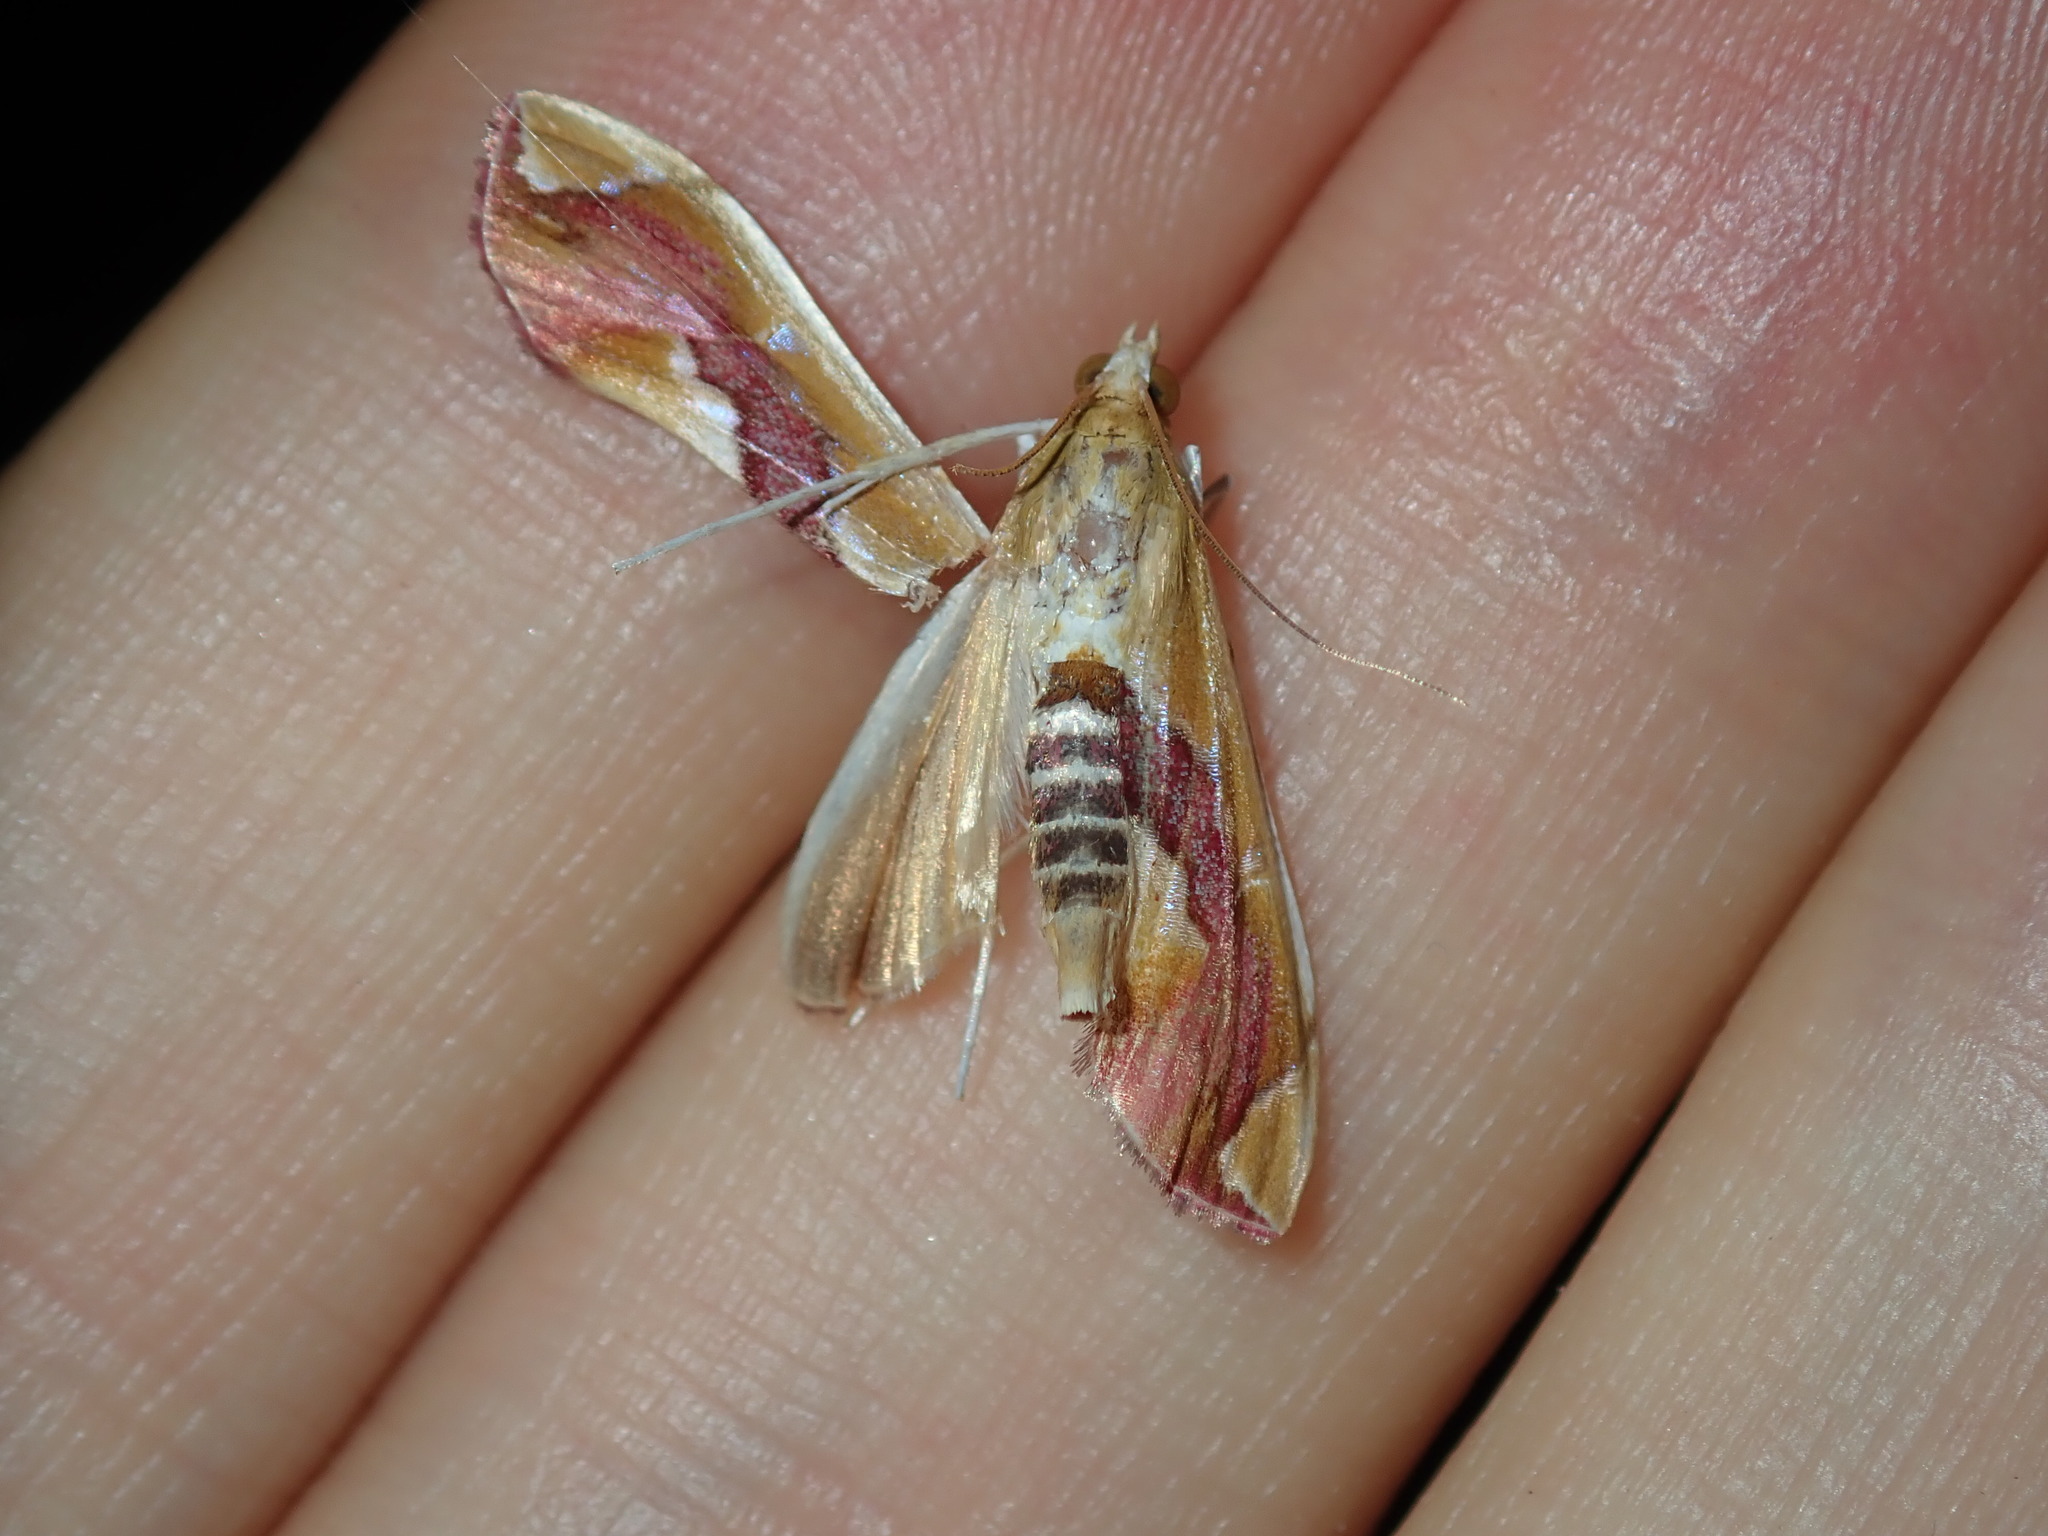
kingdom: Animalia
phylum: Arthropoda
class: Insecta
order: Lepidoptera
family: Crambidae
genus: Agathodes
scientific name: Agathodes ostentalis
